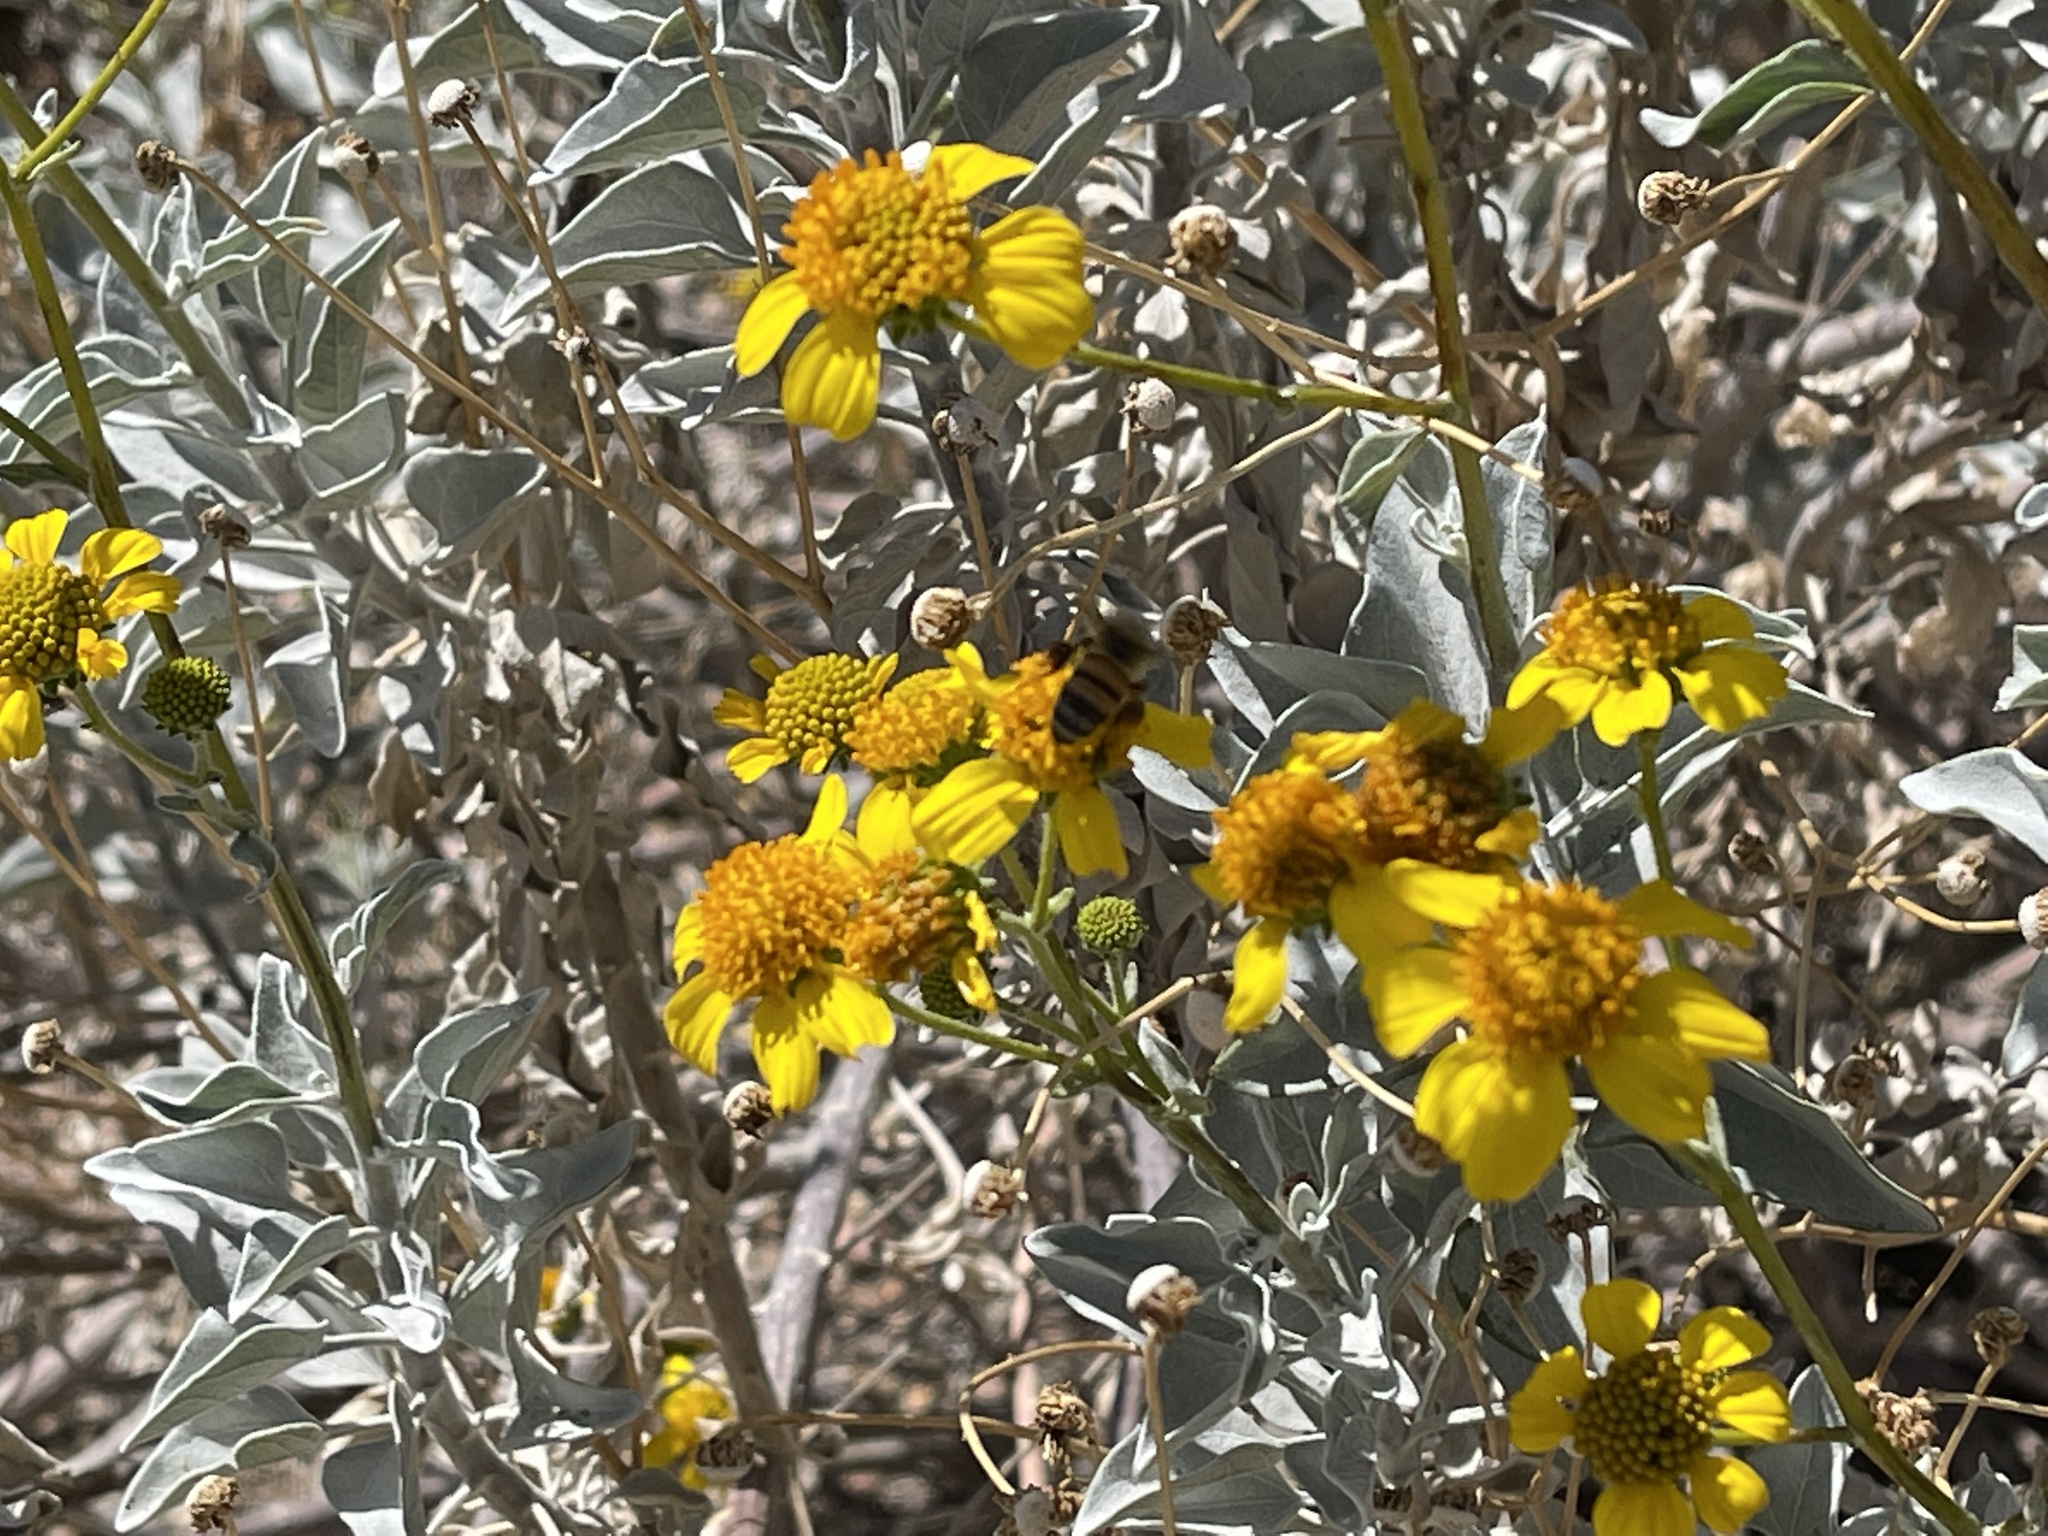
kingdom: Animalia
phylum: Arthropoda
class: Insecta
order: Hymenoptera
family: Apidae
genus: Apis
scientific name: Apis mellifera
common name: Honey bee
